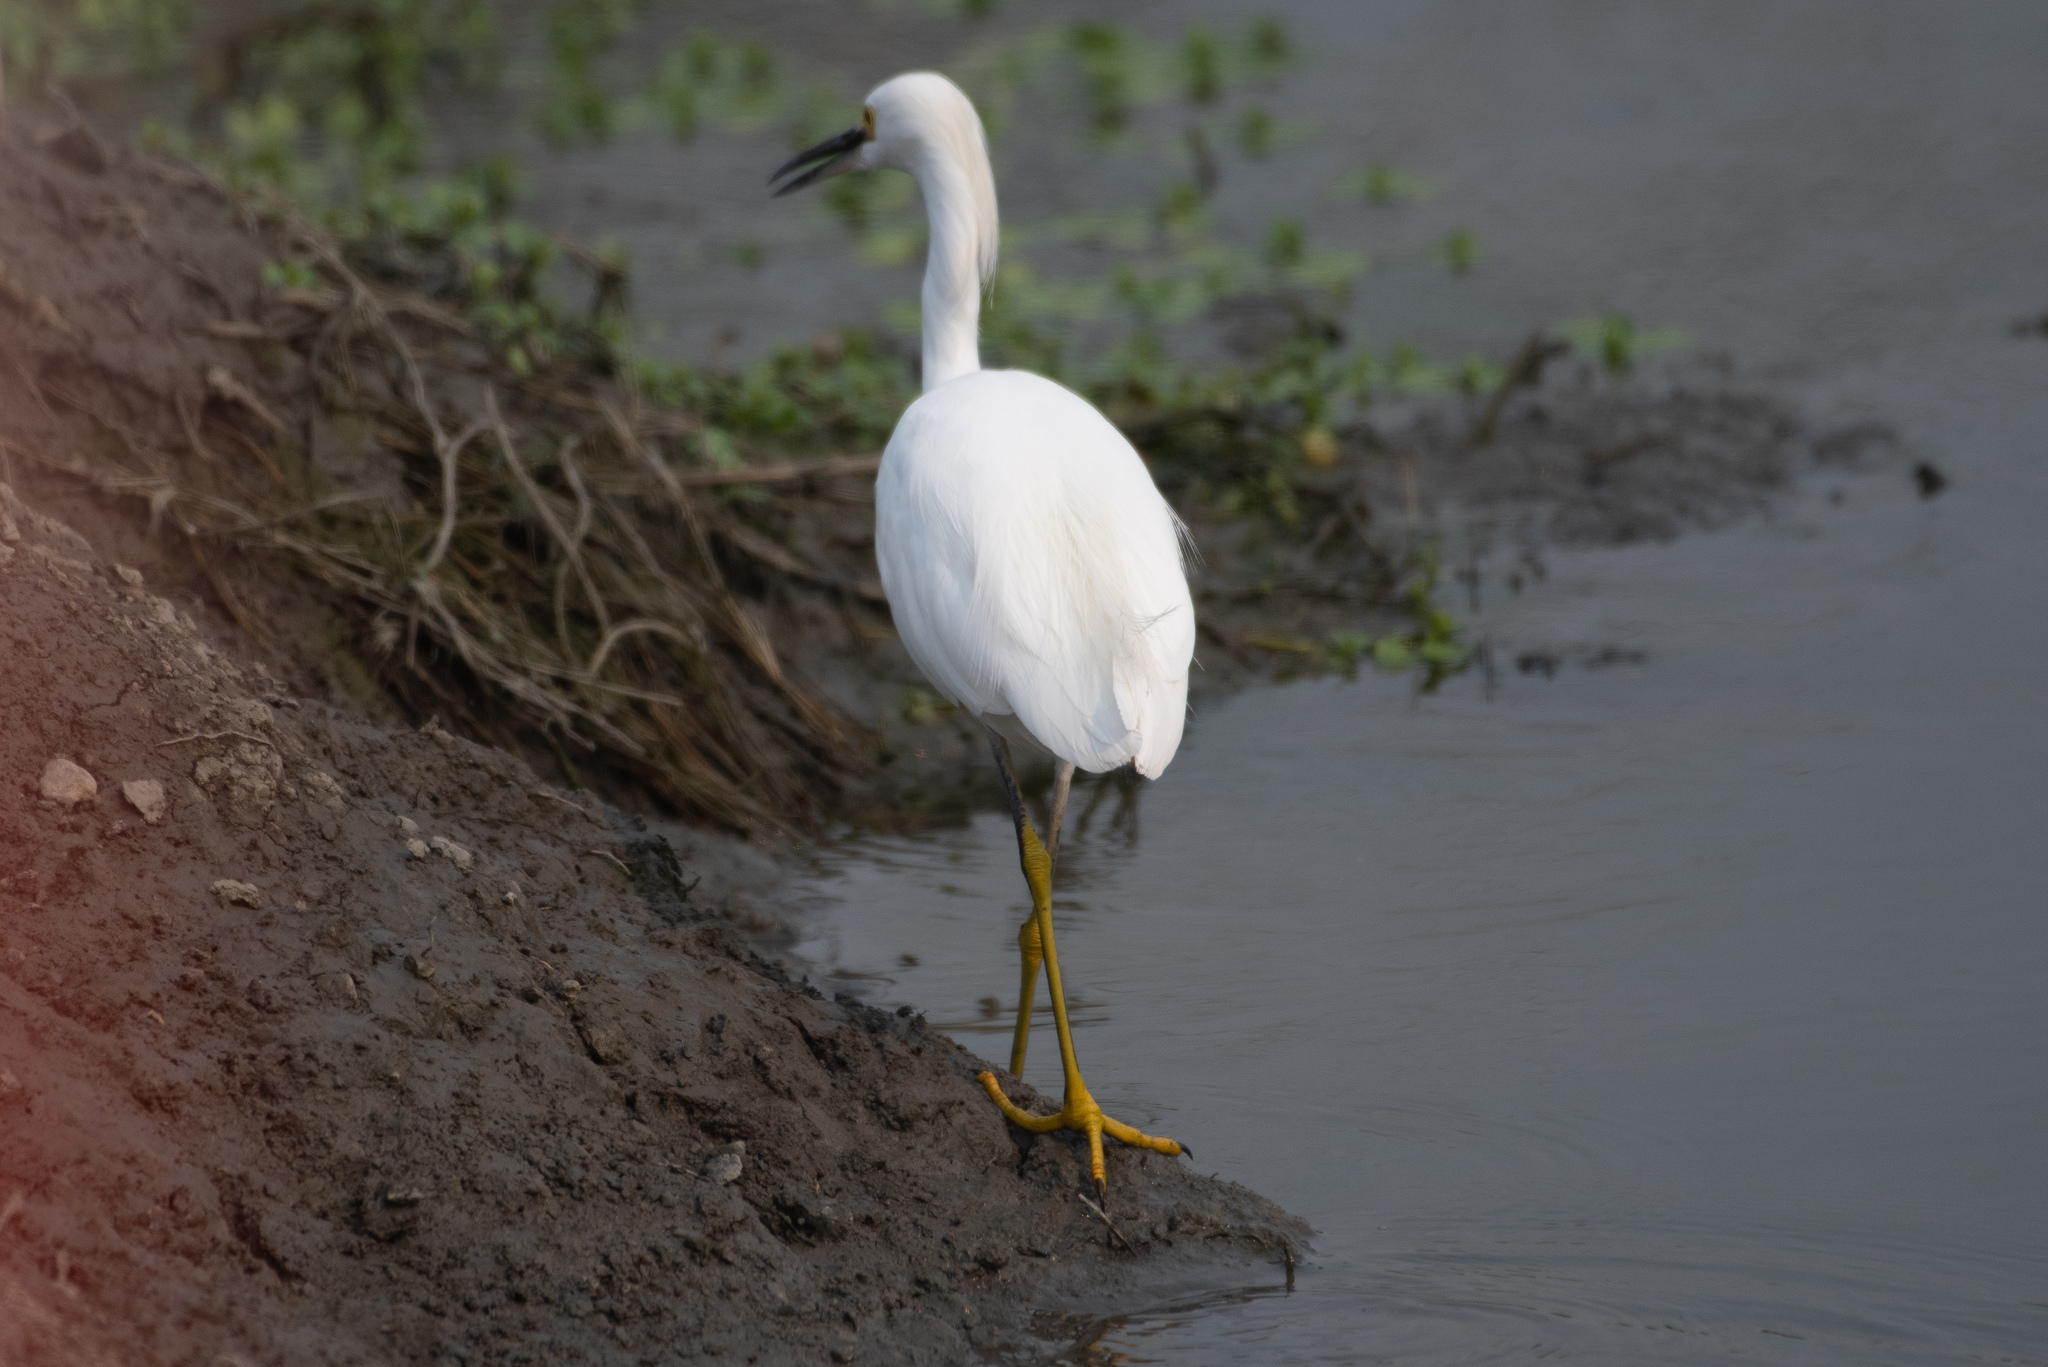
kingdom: Animalia
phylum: Chordata
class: Aves
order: Pelecaniformes
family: Ardeidae
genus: Egretta
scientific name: Egretta thula
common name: Snowy egret
